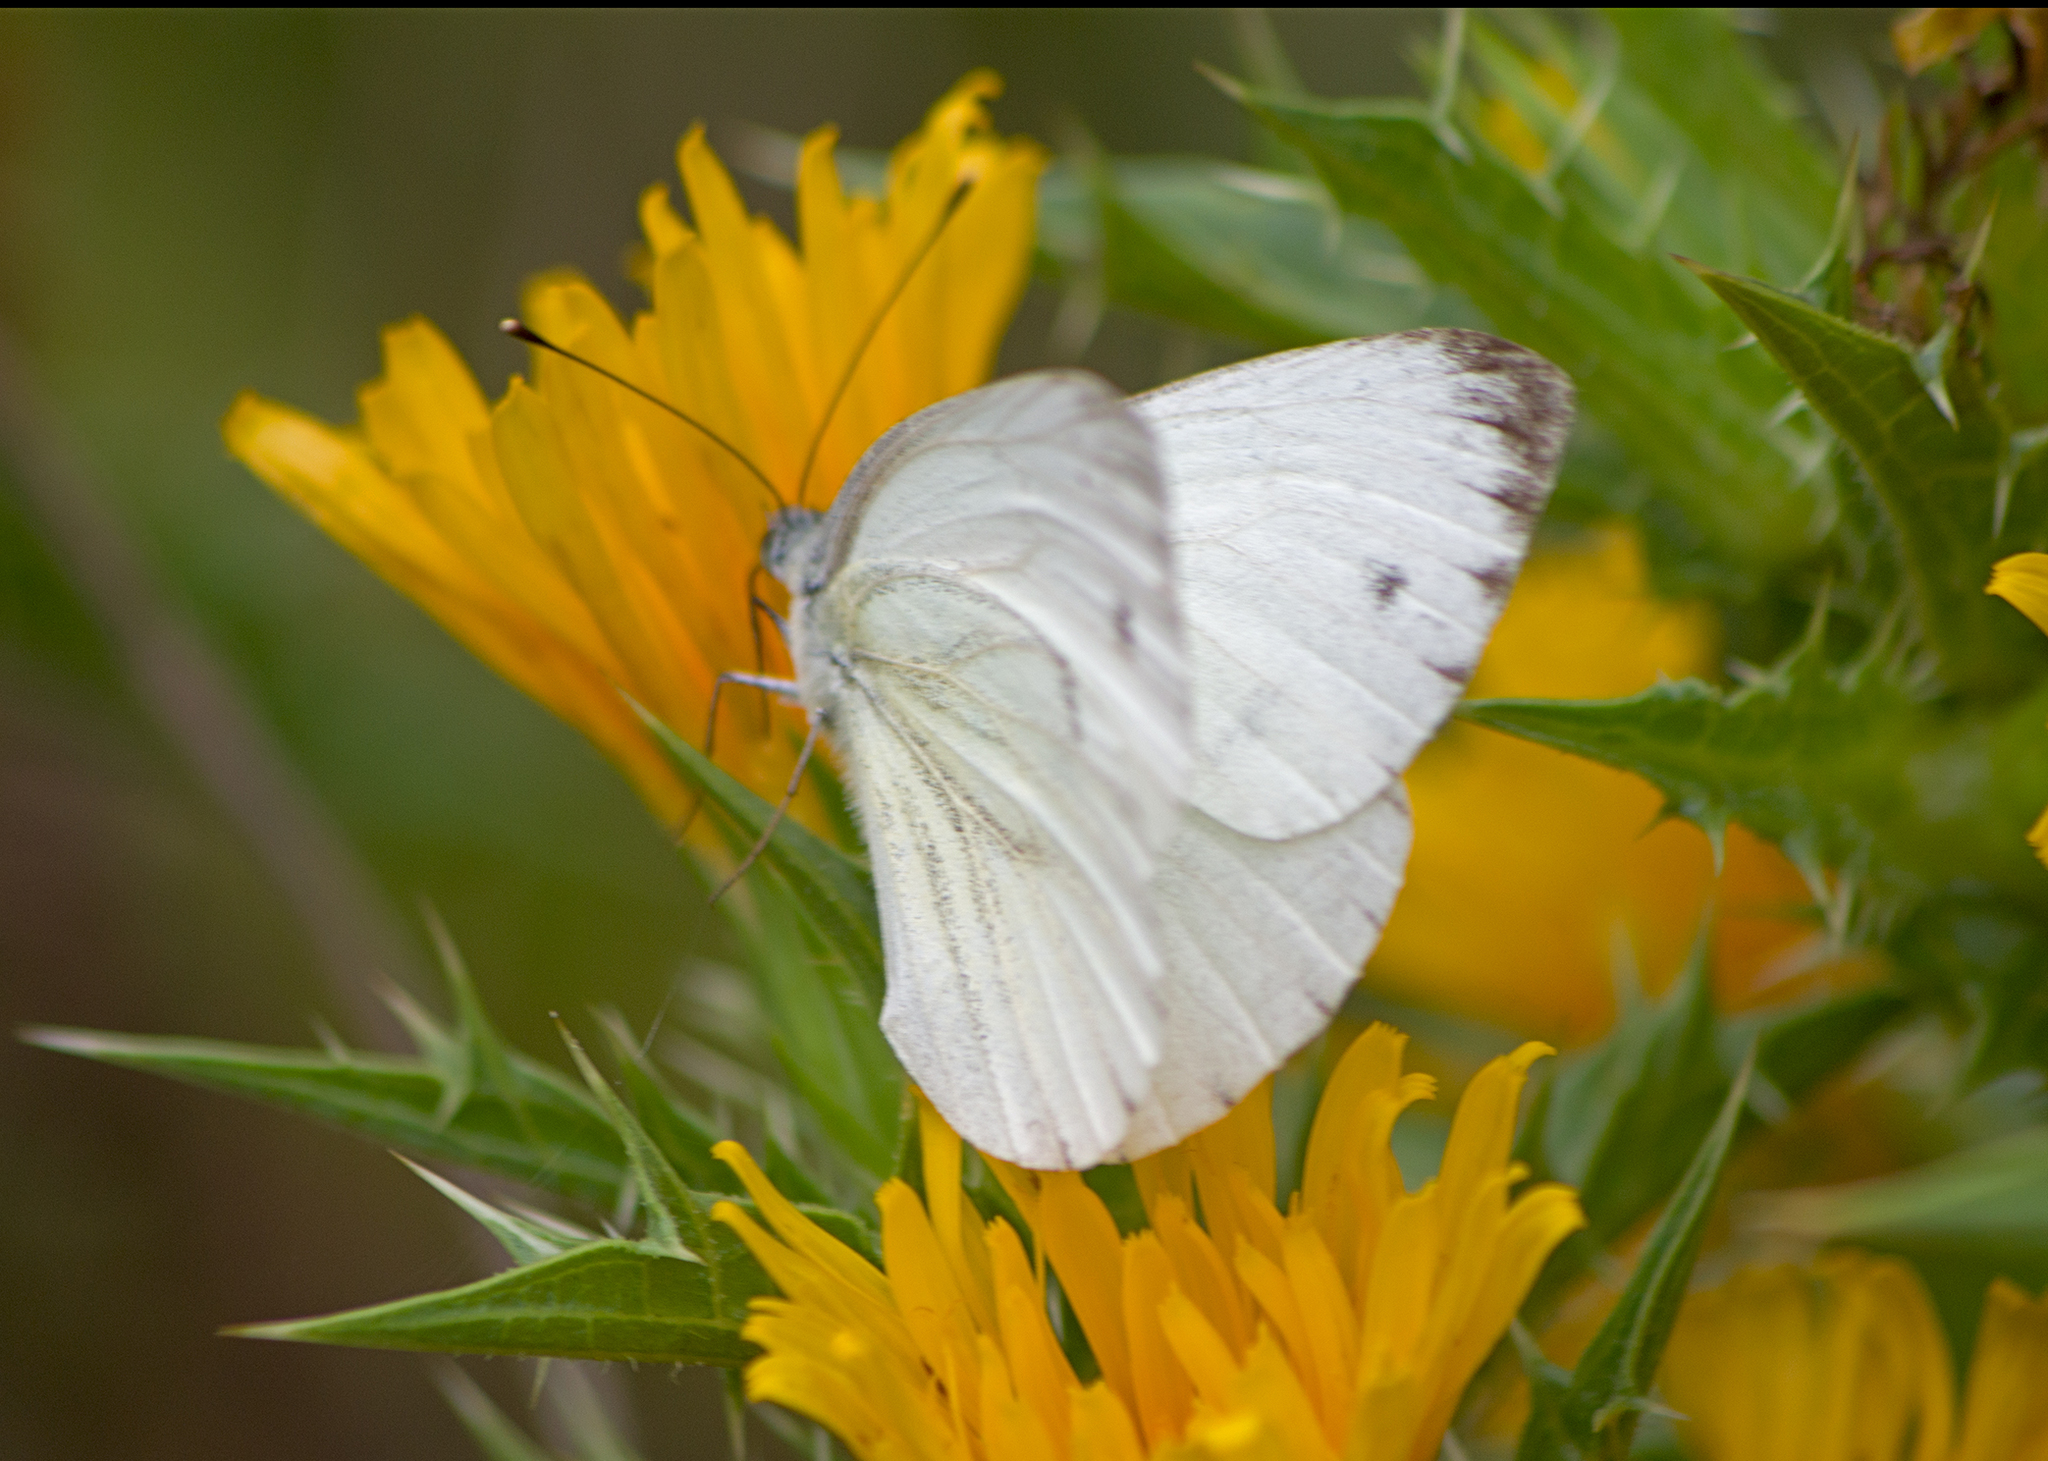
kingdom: Animalia
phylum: Arthropoda
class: Insecta
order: Lepidoptera
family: Pieridae
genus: Pieris
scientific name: Pieris napi
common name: Green-veined white
